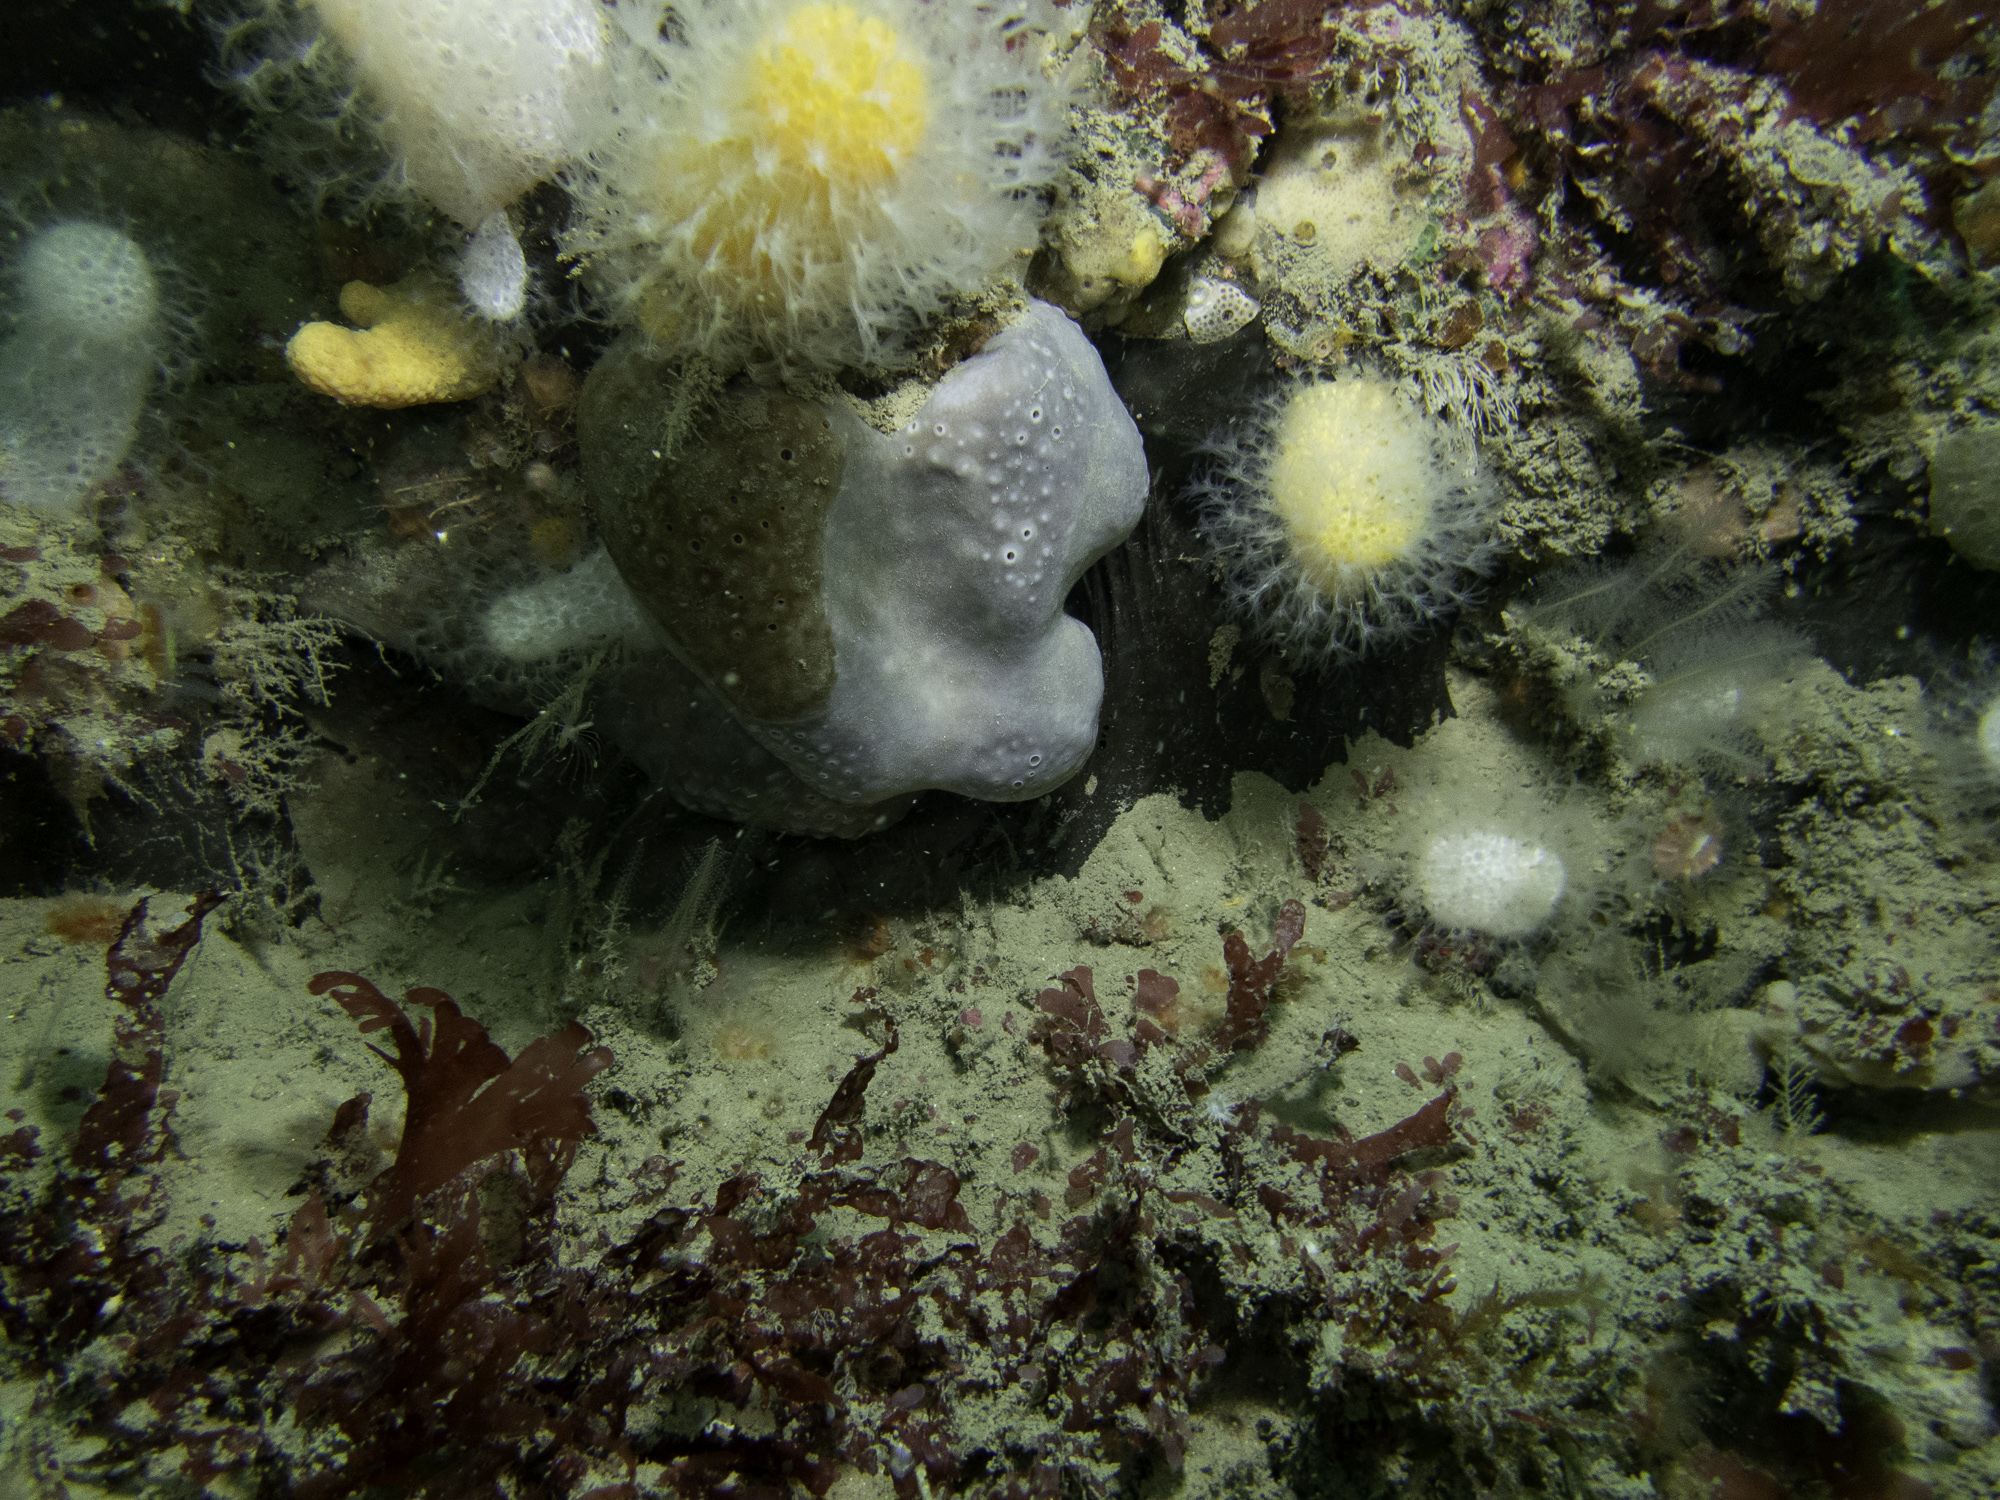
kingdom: Animalia
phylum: Porifera
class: Demospongiae
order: Tetractinellida
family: Ancorinidae
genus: Dercitus
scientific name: Dercitus bucklandi
